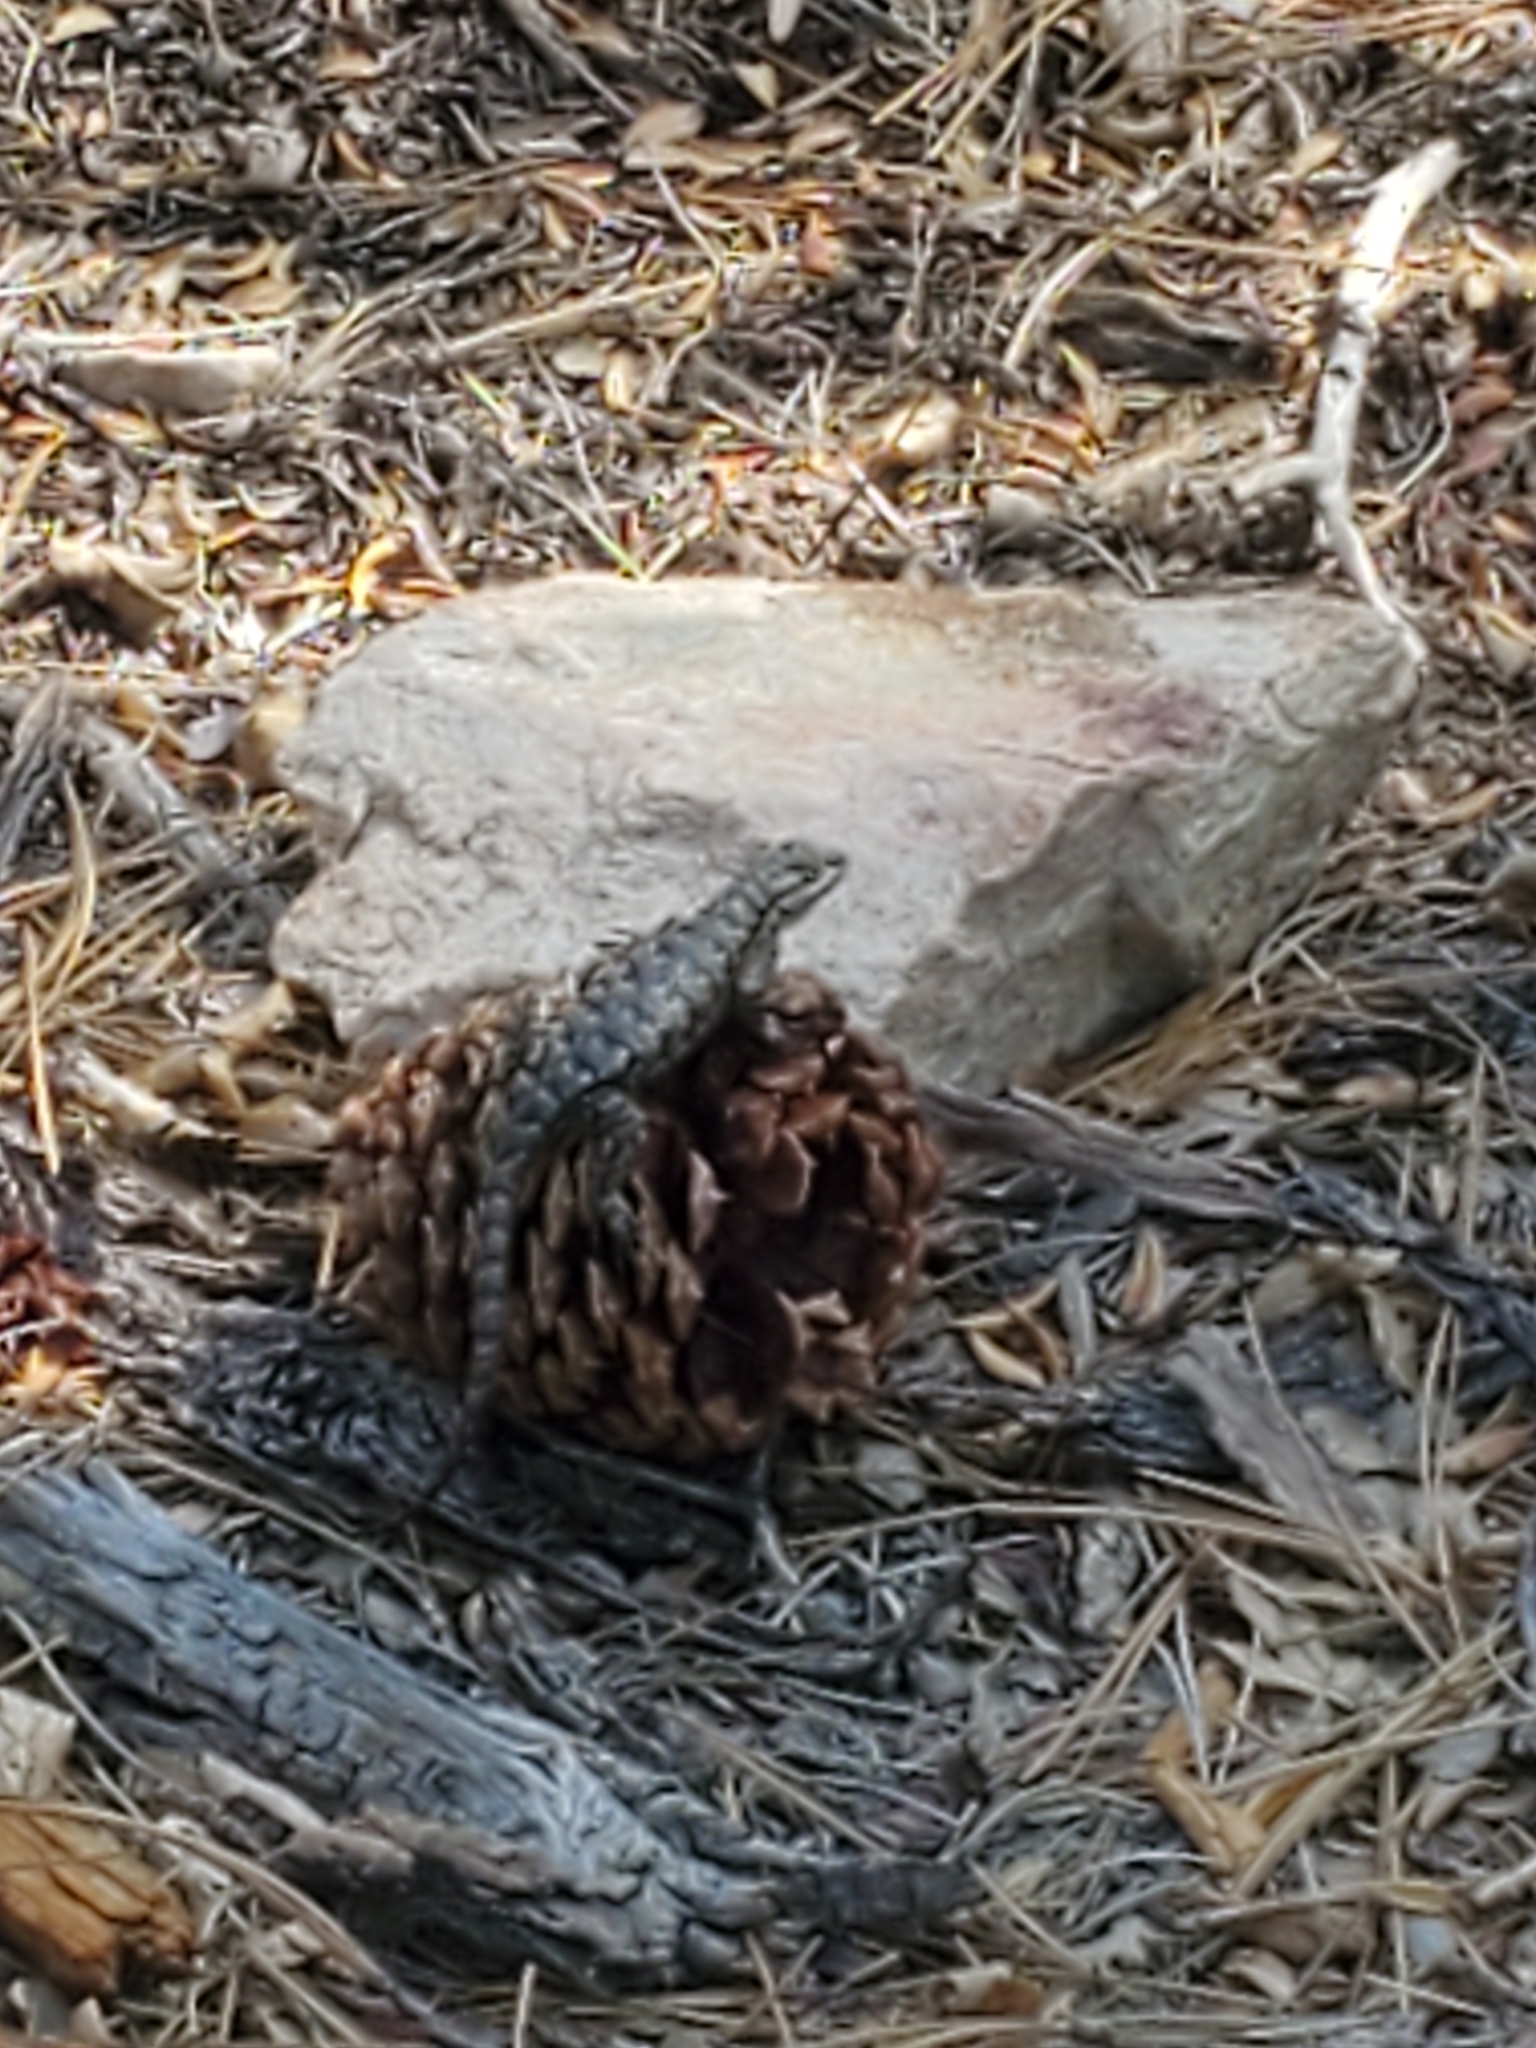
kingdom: Animalia
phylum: Chordata
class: Squamata
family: Phrynosomatidae
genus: Sceloporus
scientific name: Sceloporus occidentalis
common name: Western fence lizard
